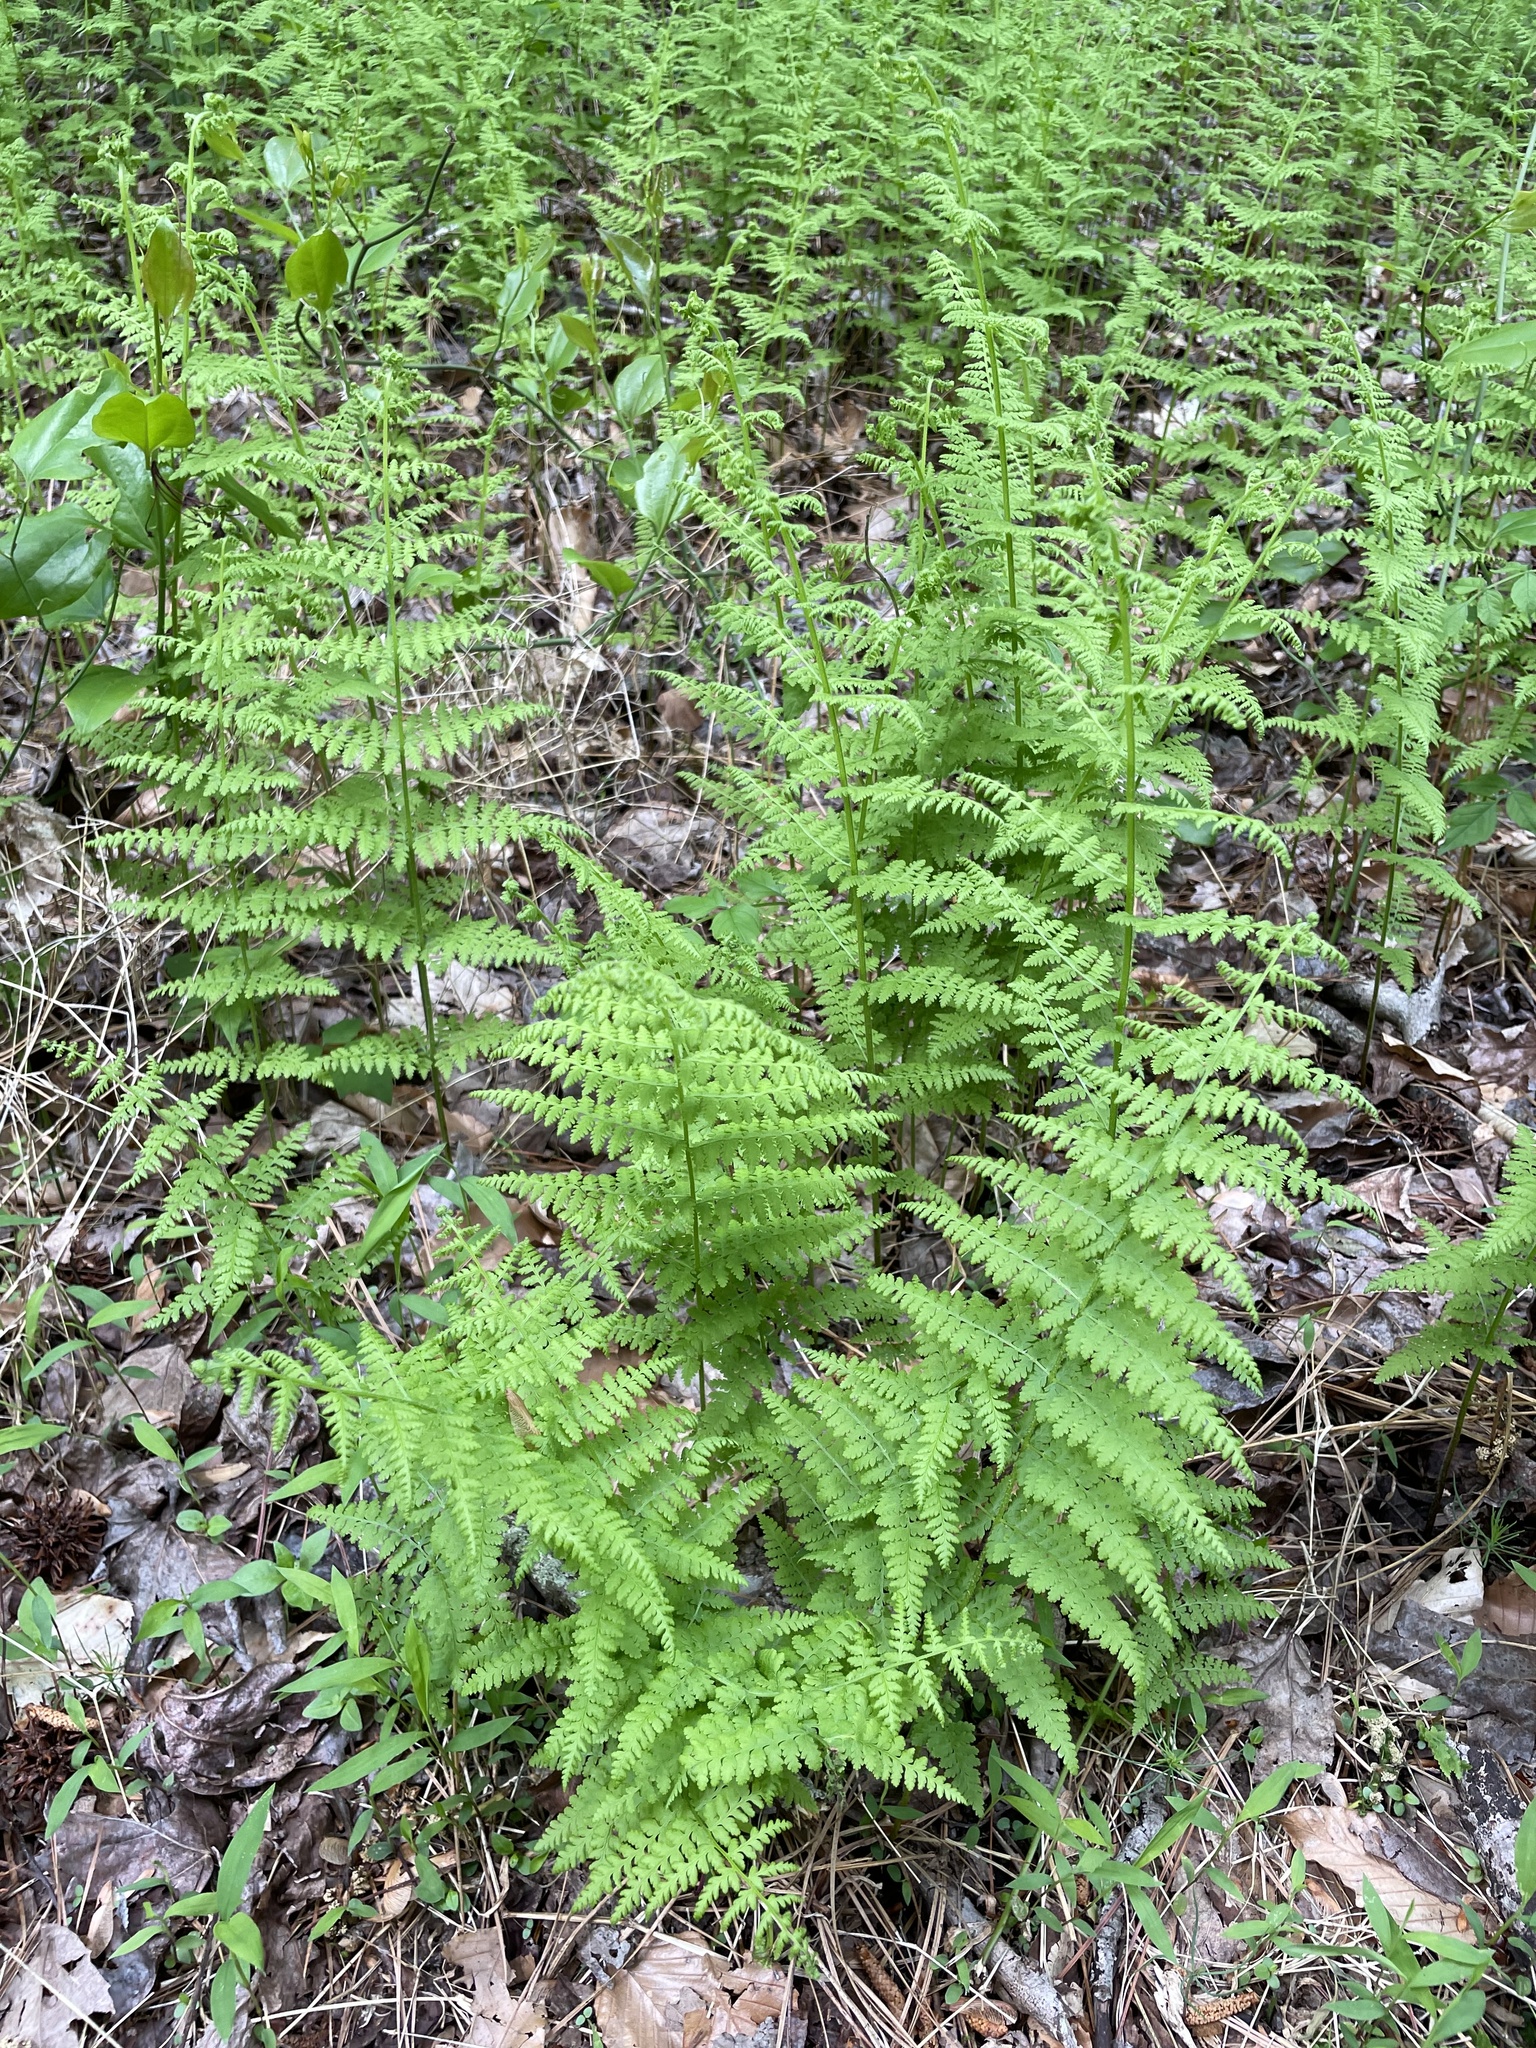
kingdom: Plantae
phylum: Tracheophyta
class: Polypodiopsida
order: Polypodiales
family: Dennstaedtiaceae
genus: Sitobolium
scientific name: Sitobolium punctilobum
